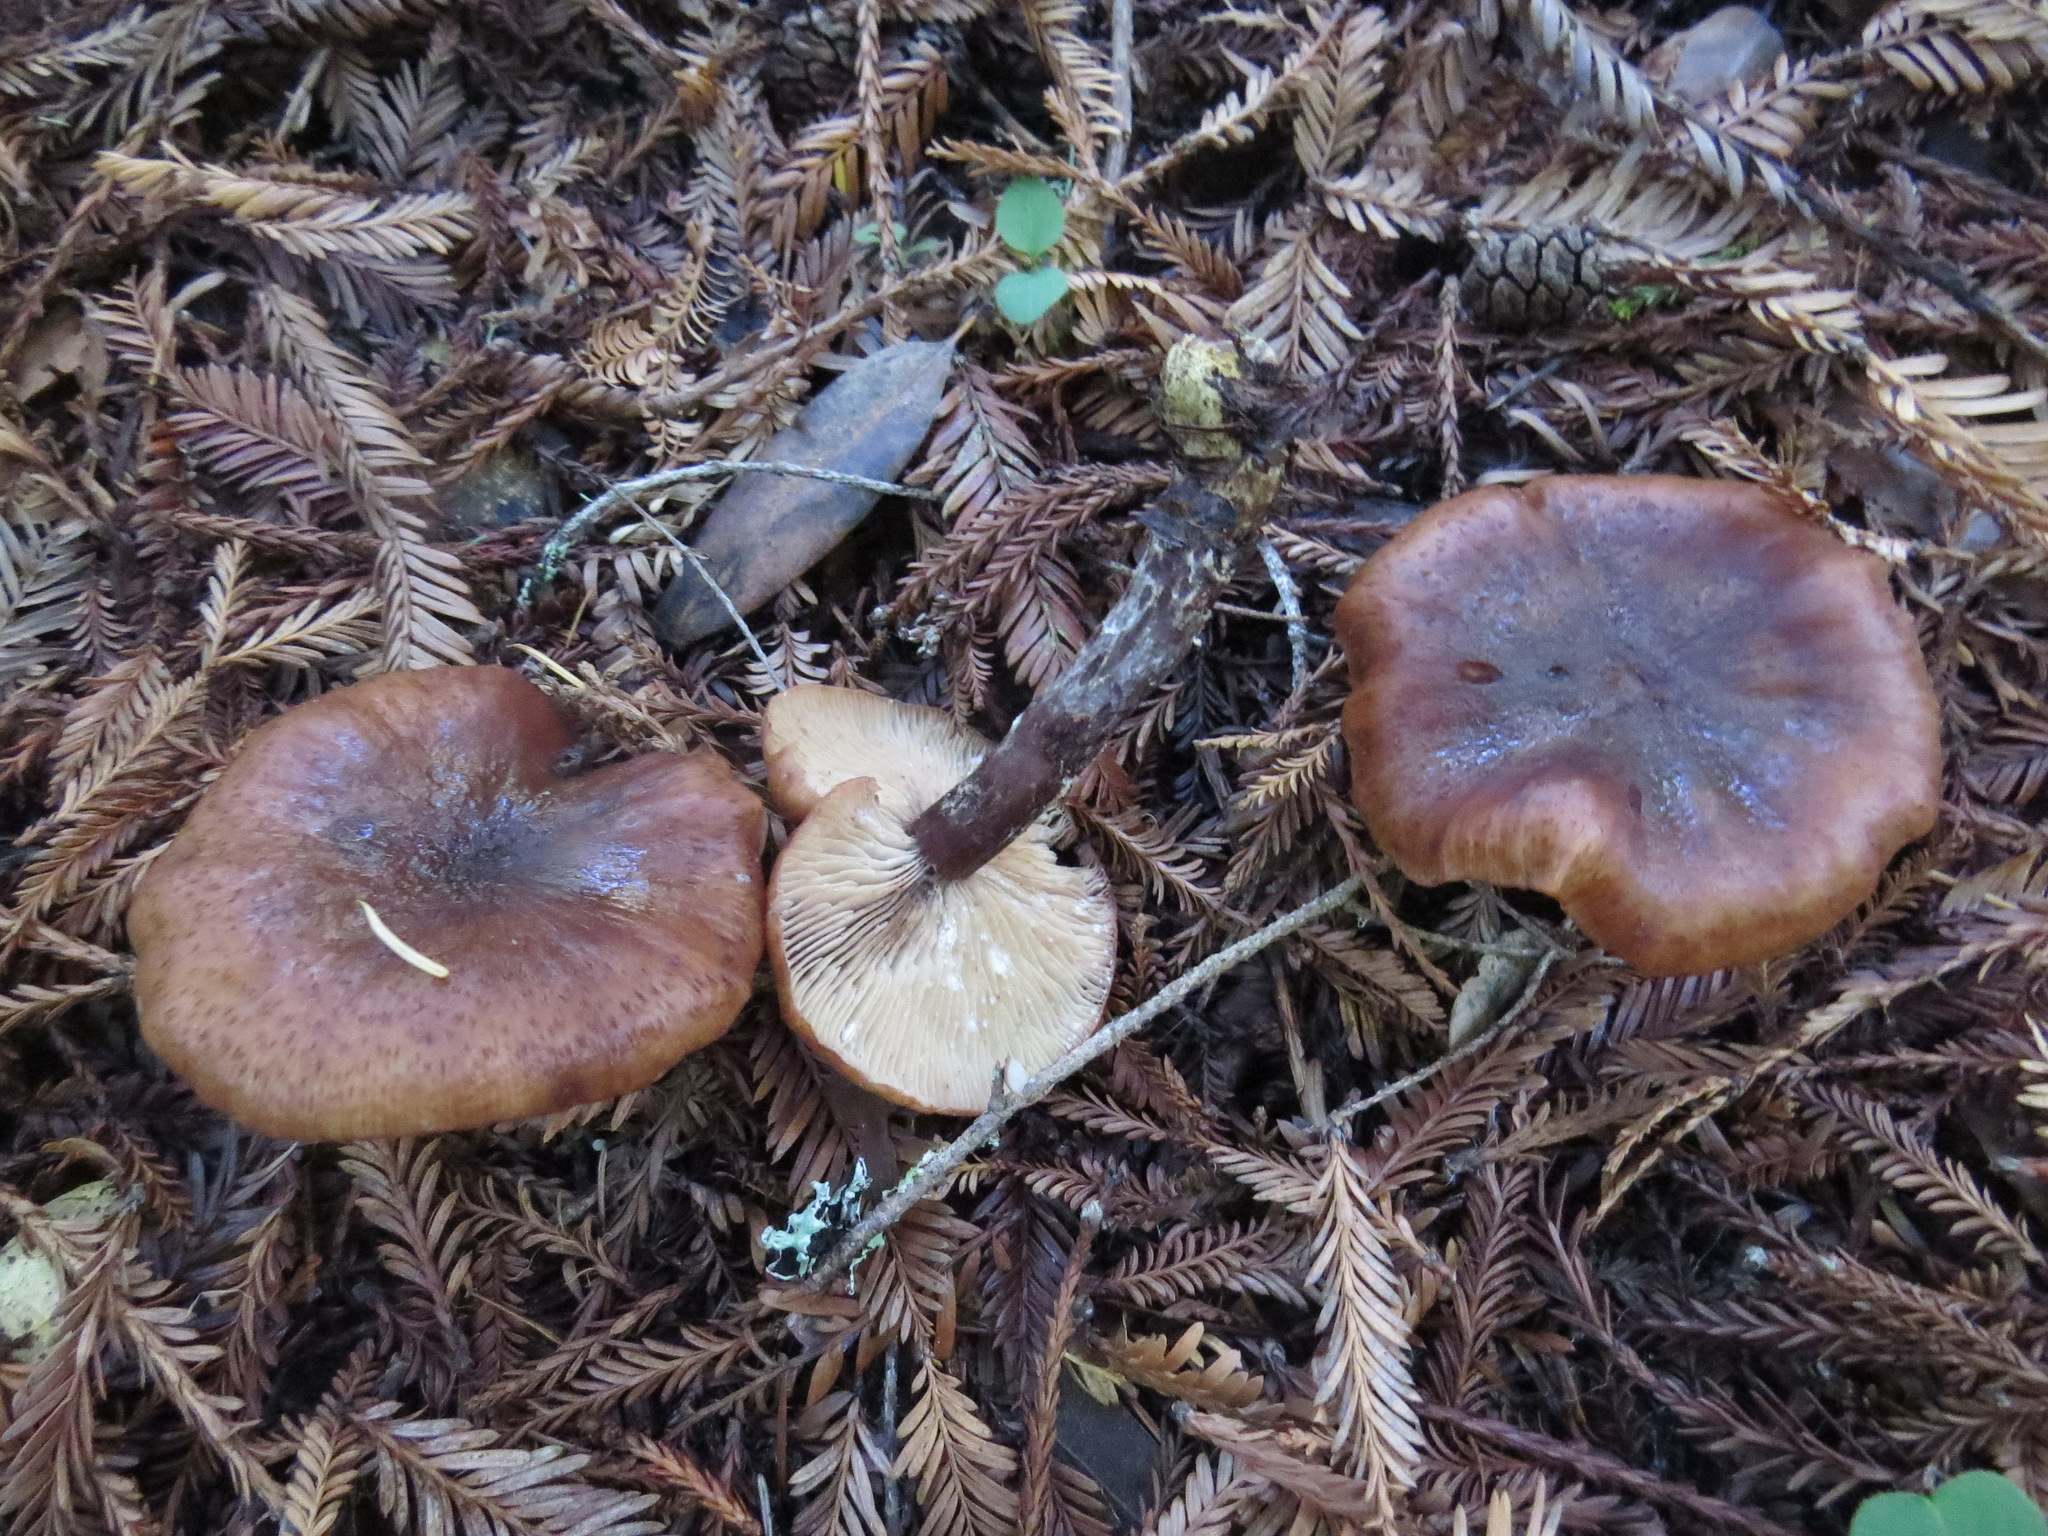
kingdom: Fungi
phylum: Basidiomycota
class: Agaricomycetes
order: Agaricales
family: Physalacriaceae
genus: Armillaria
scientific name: Armillaria sinapina
